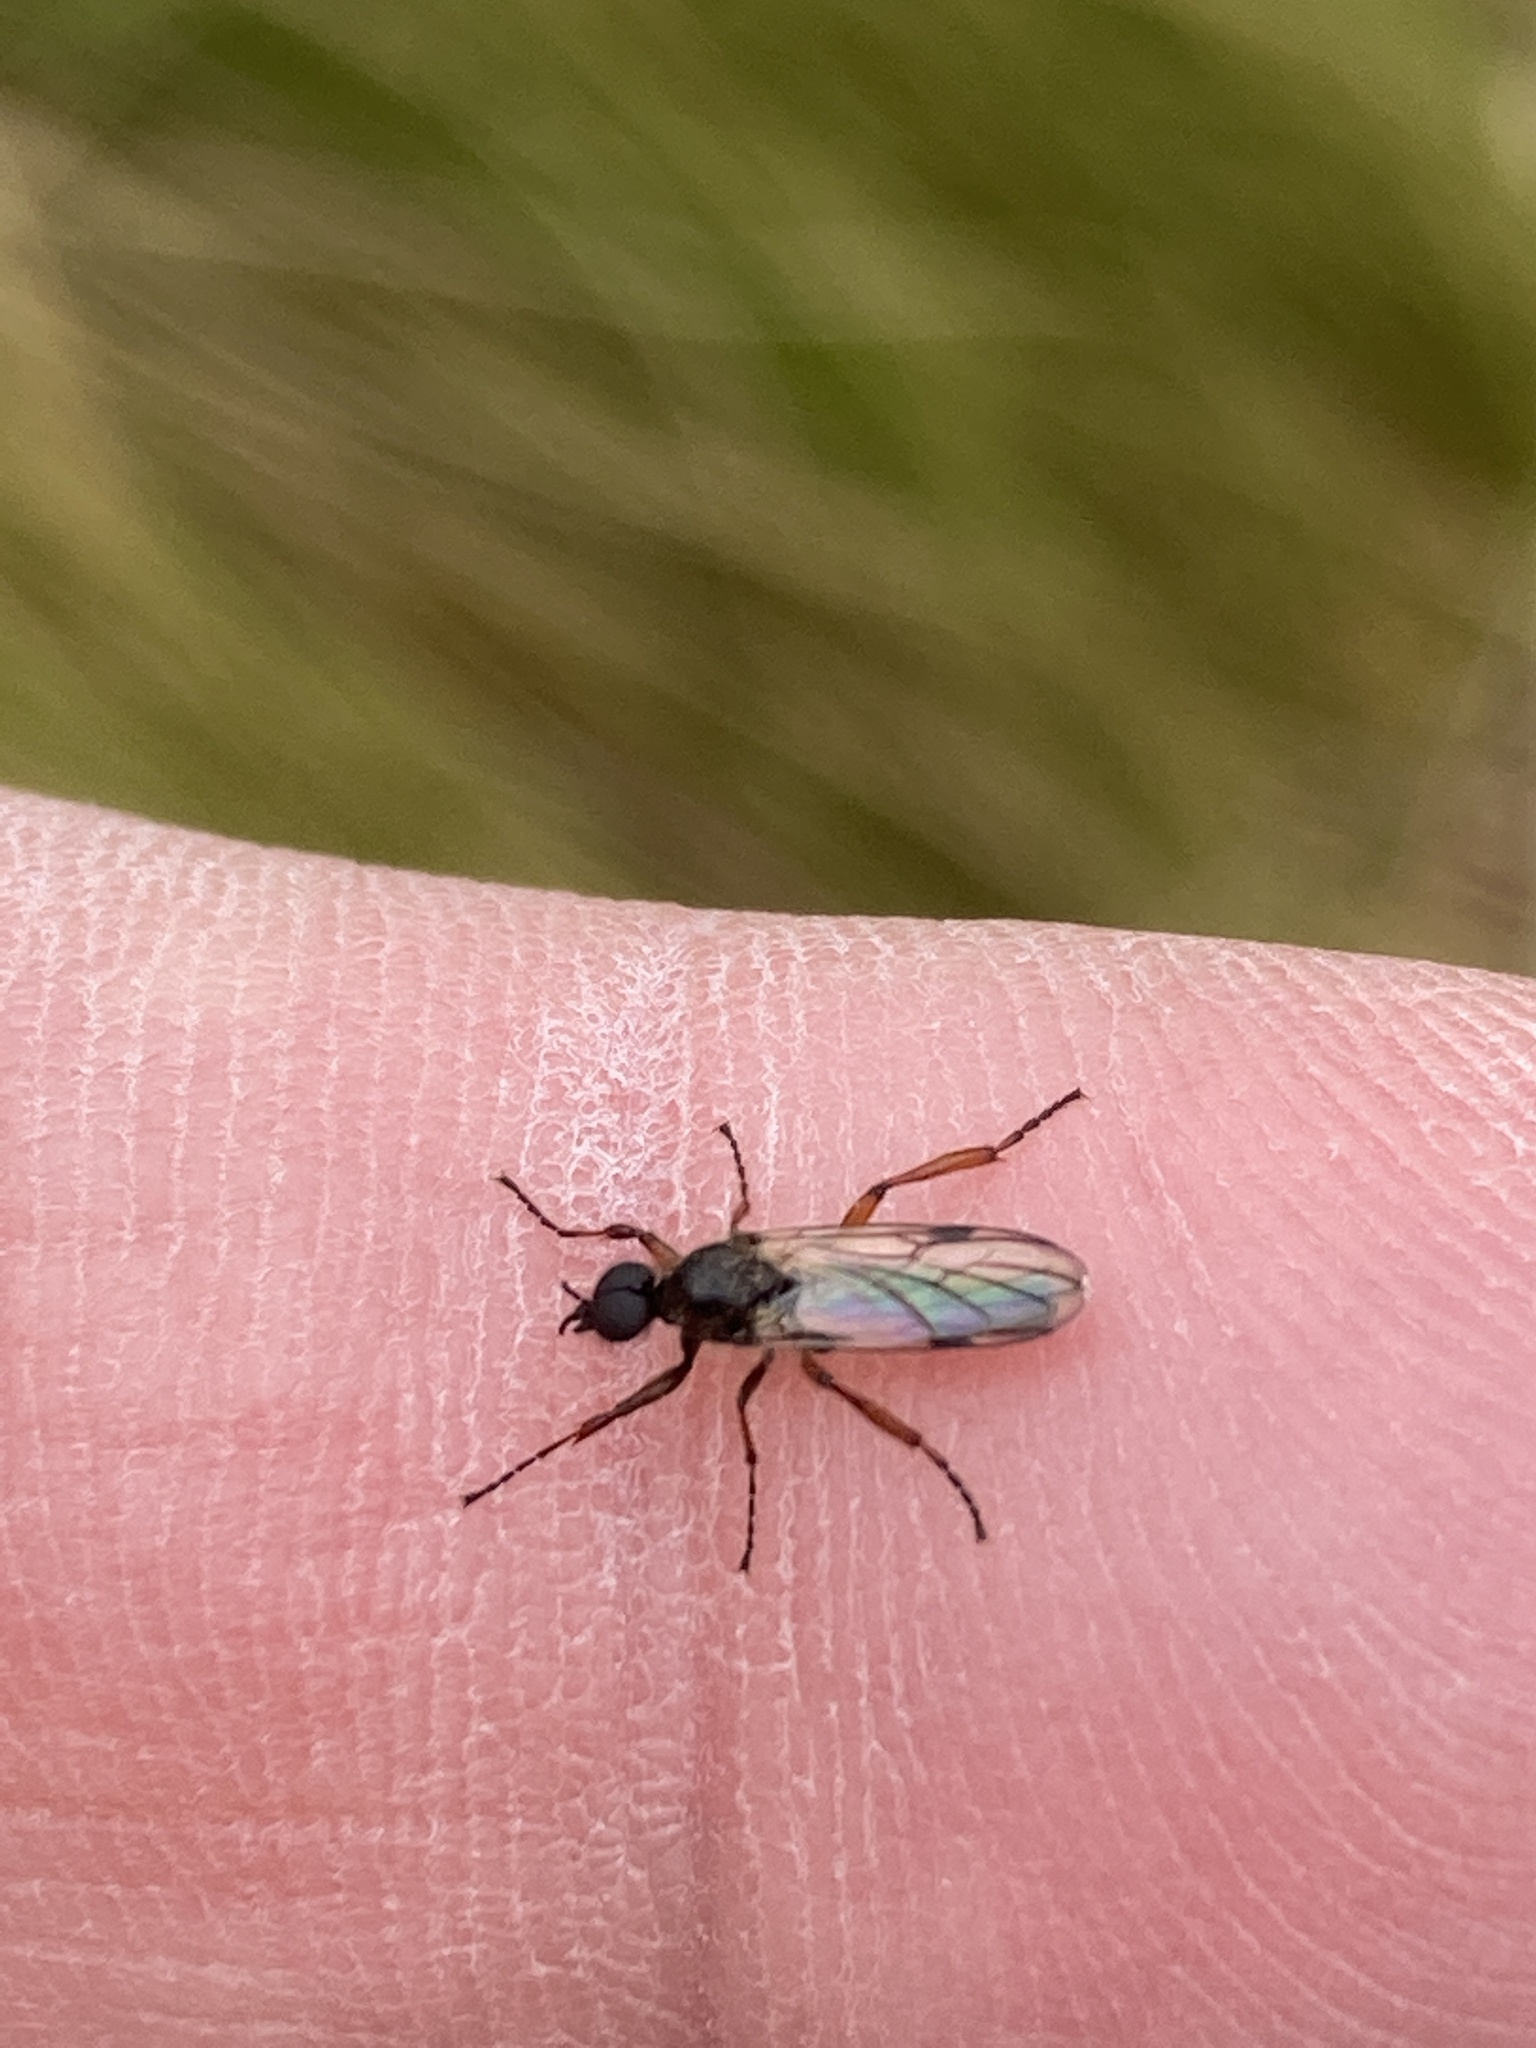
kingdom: Animalia
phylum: Arthropoda
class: Insecta
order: Diptera
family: Bibionidae
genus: Bibio
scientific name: Bibio
